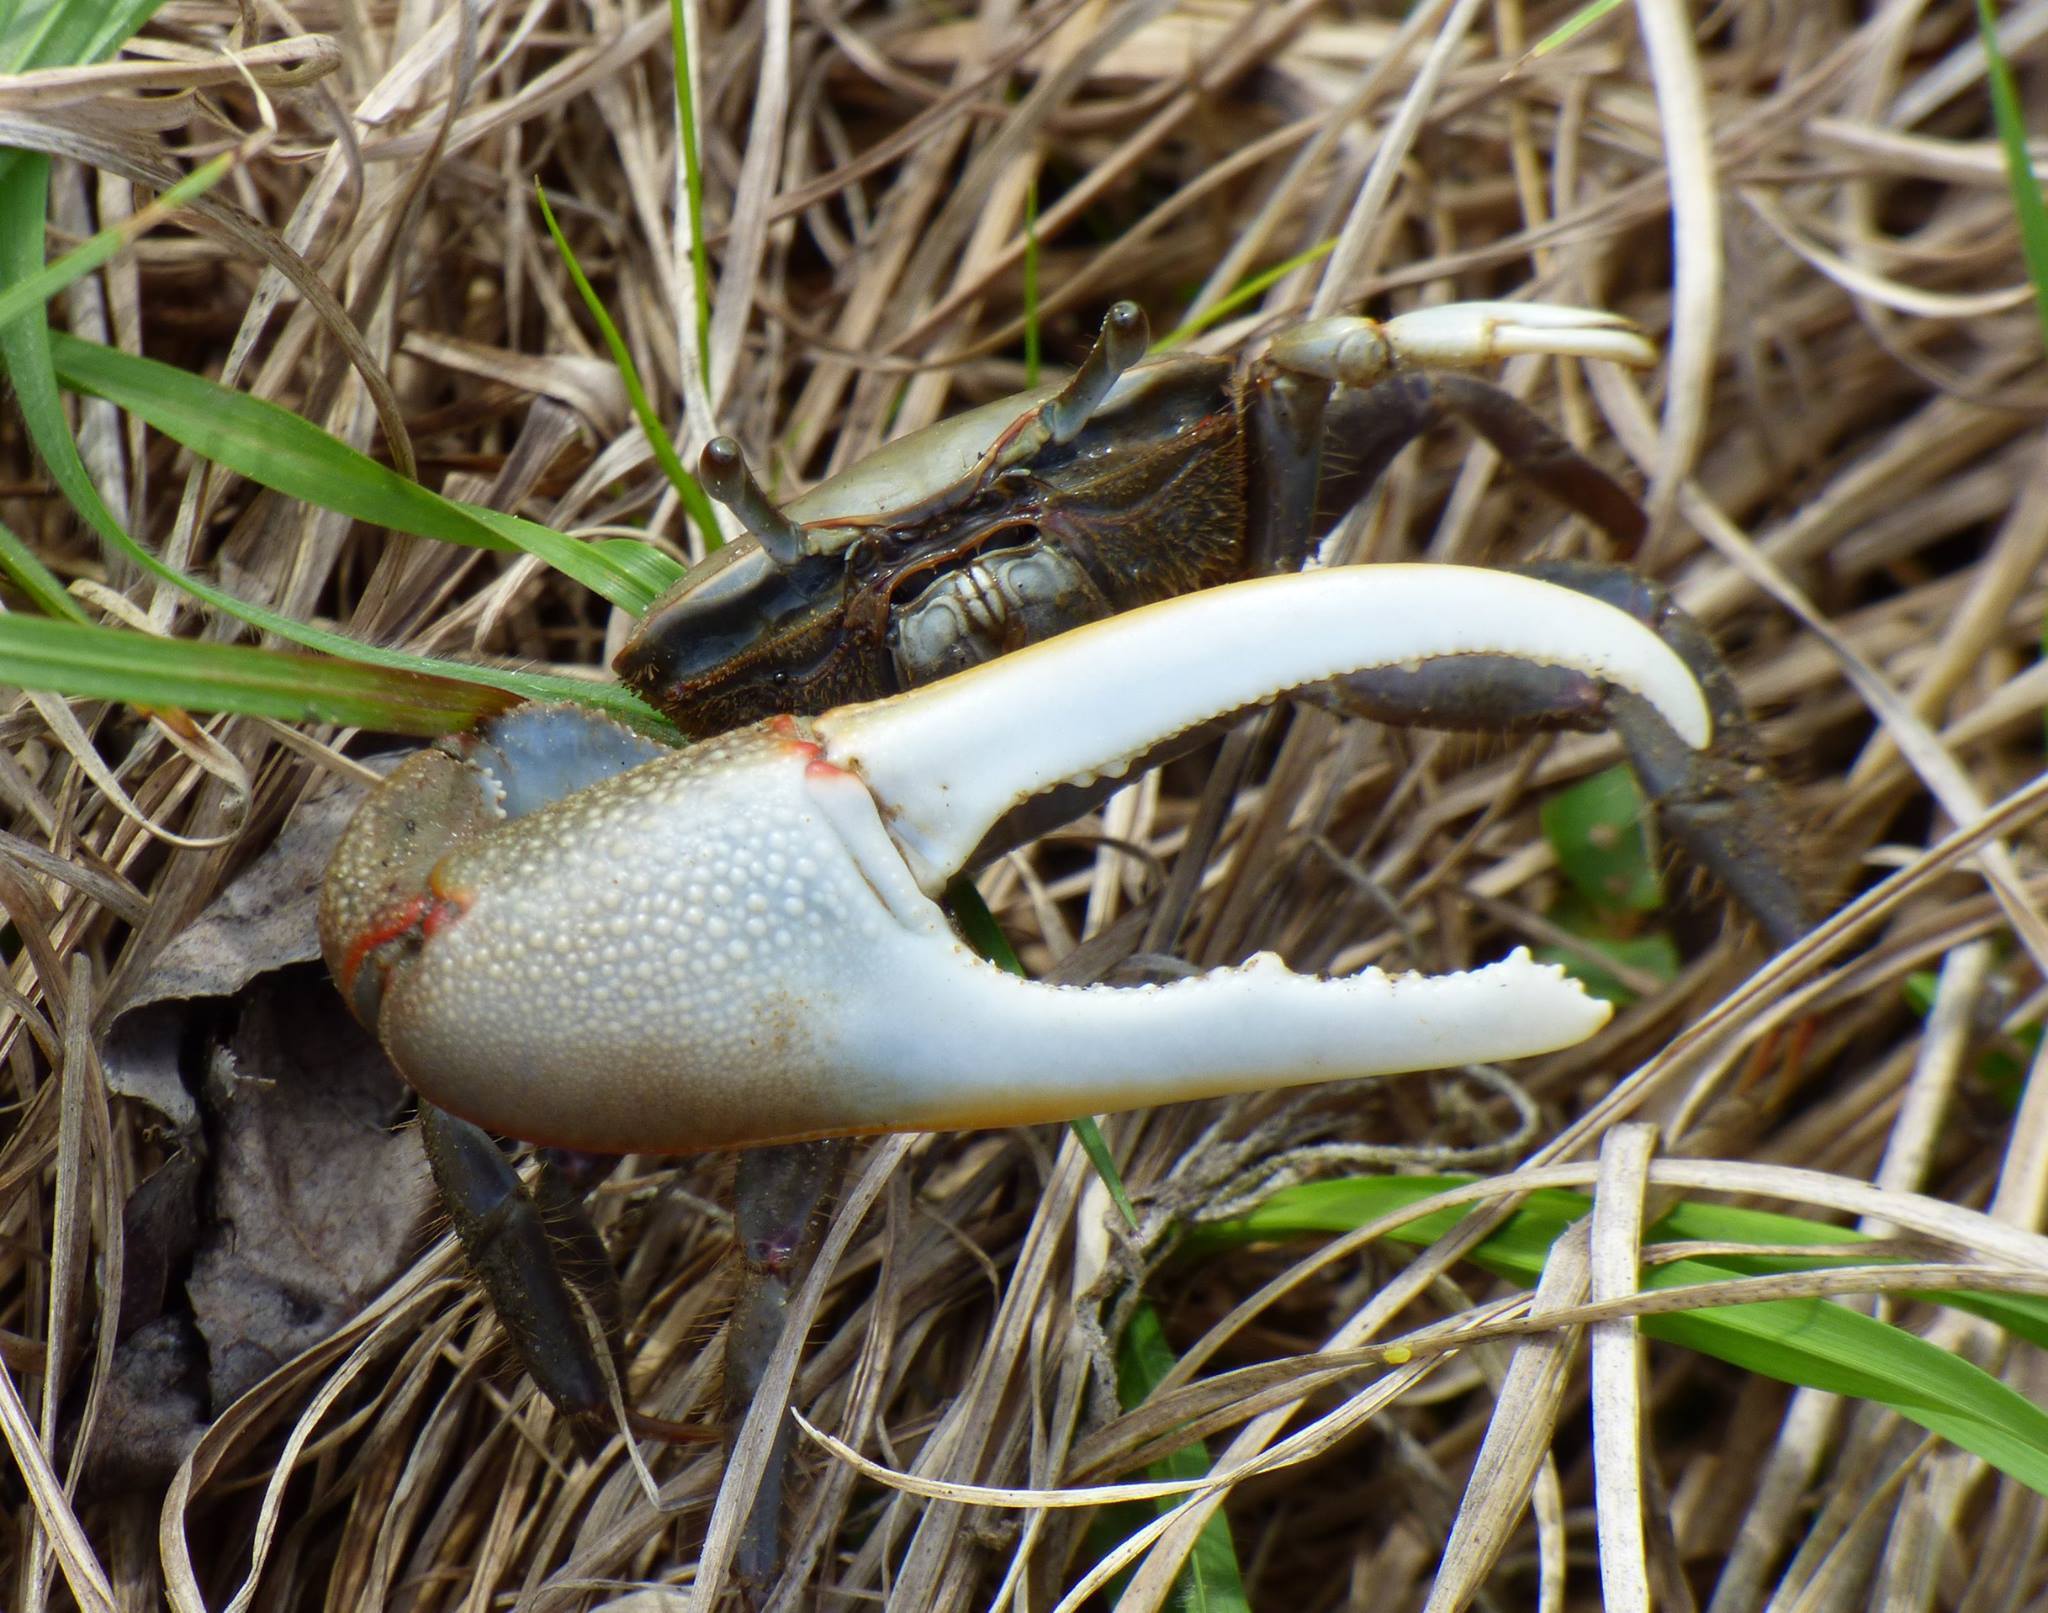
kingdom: Animalia
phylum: Arthropoda
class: Malacostraca
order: Decapoda
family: Ocypodidae
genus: Minuca
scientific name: Minuca minax
